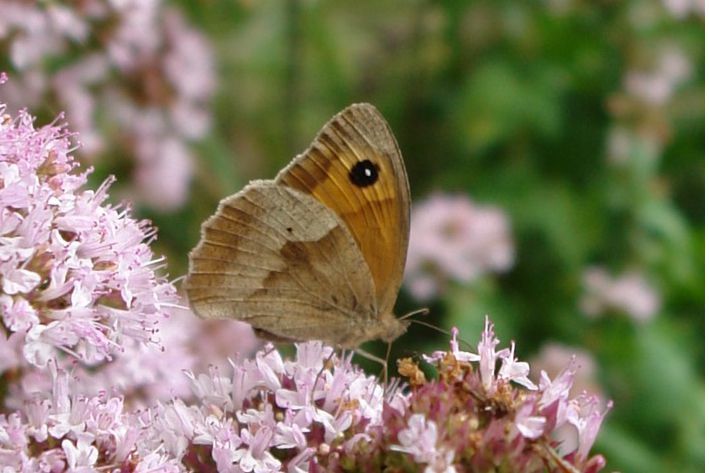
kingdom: Animalia
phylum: Arthropoda
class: Insecta
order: Lepidoptera
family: Nymphalidae
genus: Maniola
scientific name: Maniola jurtina
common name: Meadow brown
